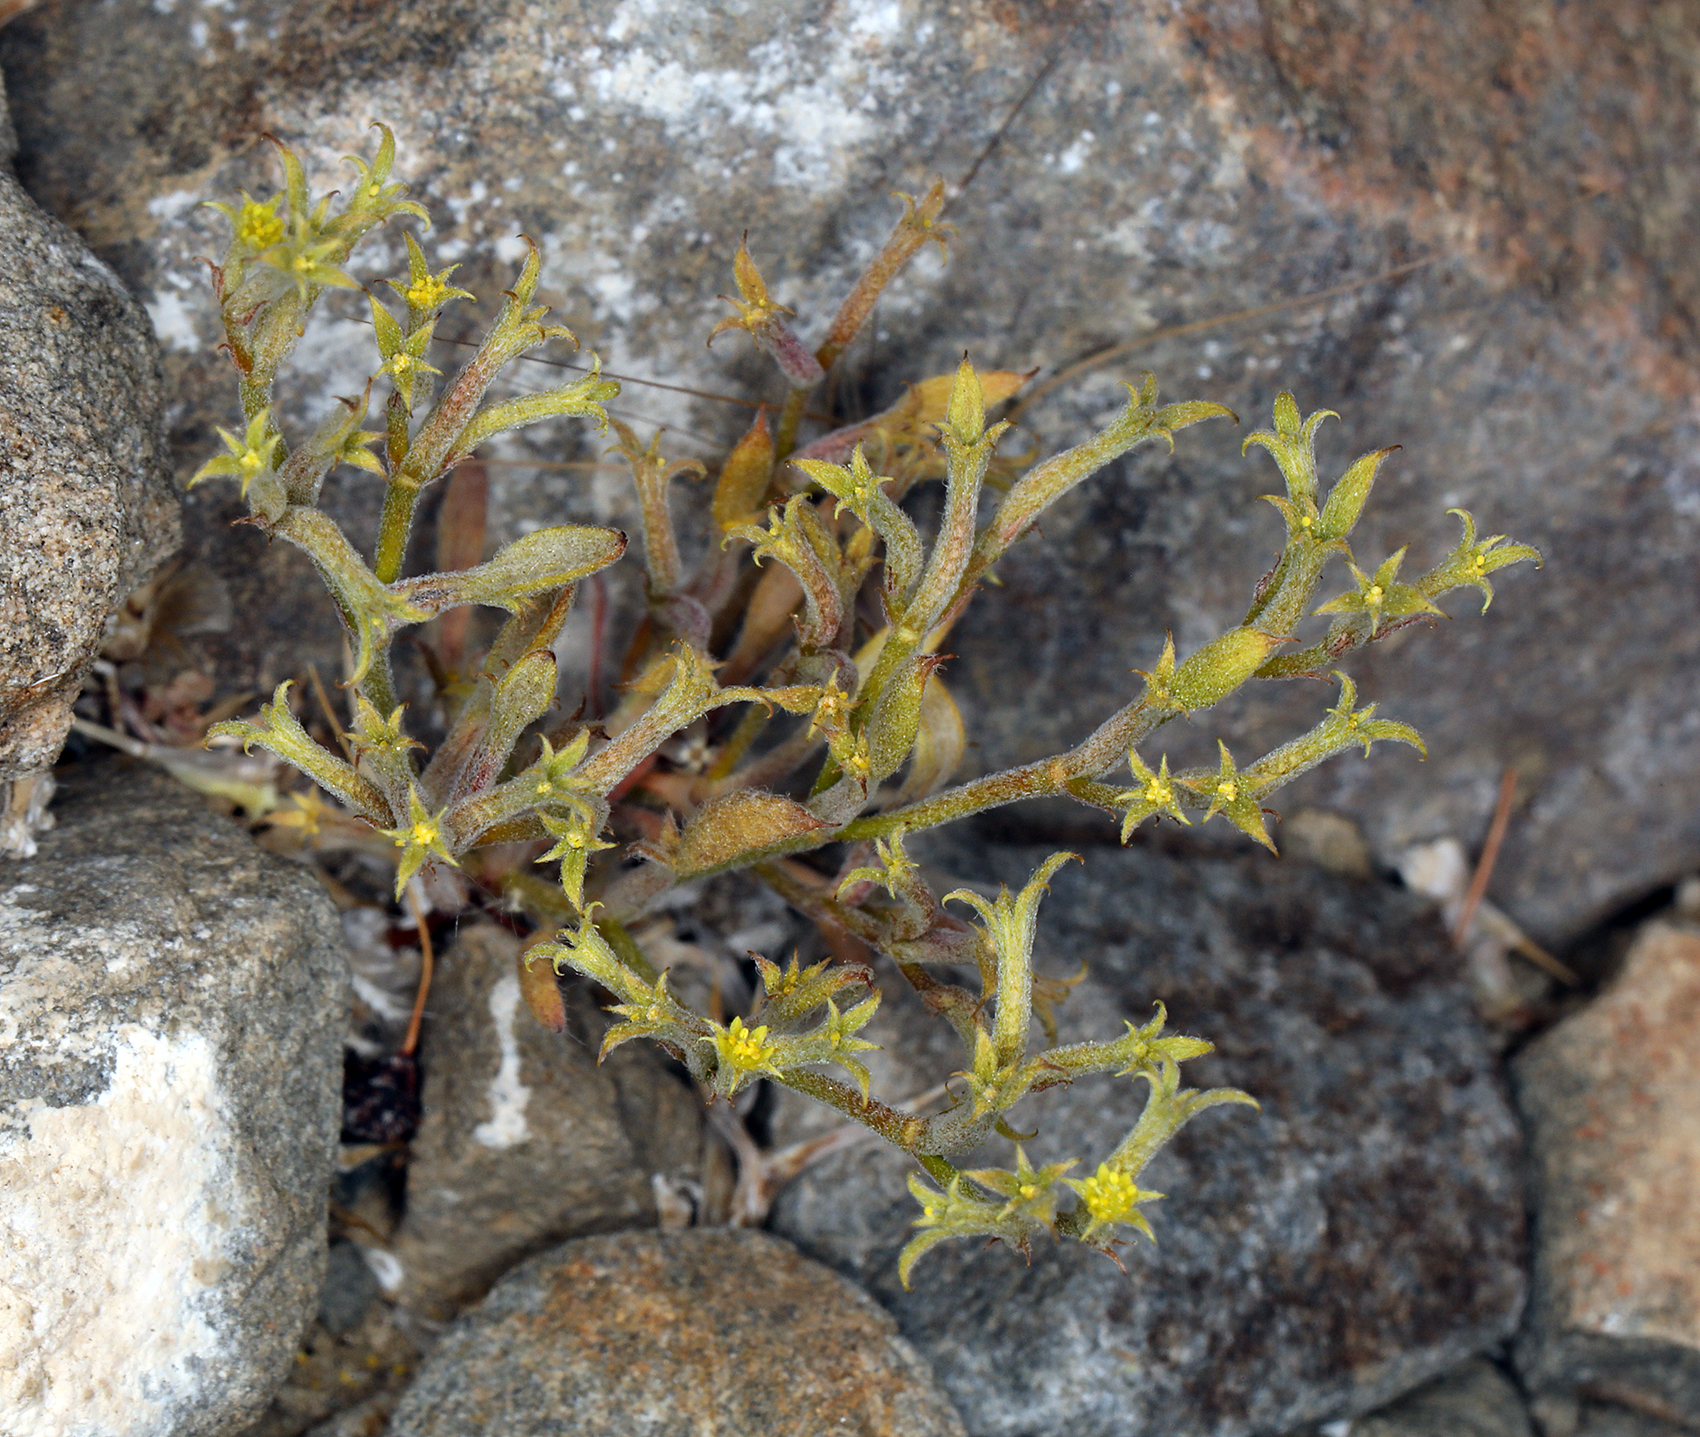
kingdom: Plantae
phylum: Tracheophyta
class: Magnoliopsida
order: Caryophyllales
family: Polygonaceae
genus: Chorizanthe
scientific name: Chorizanthe watsonii
